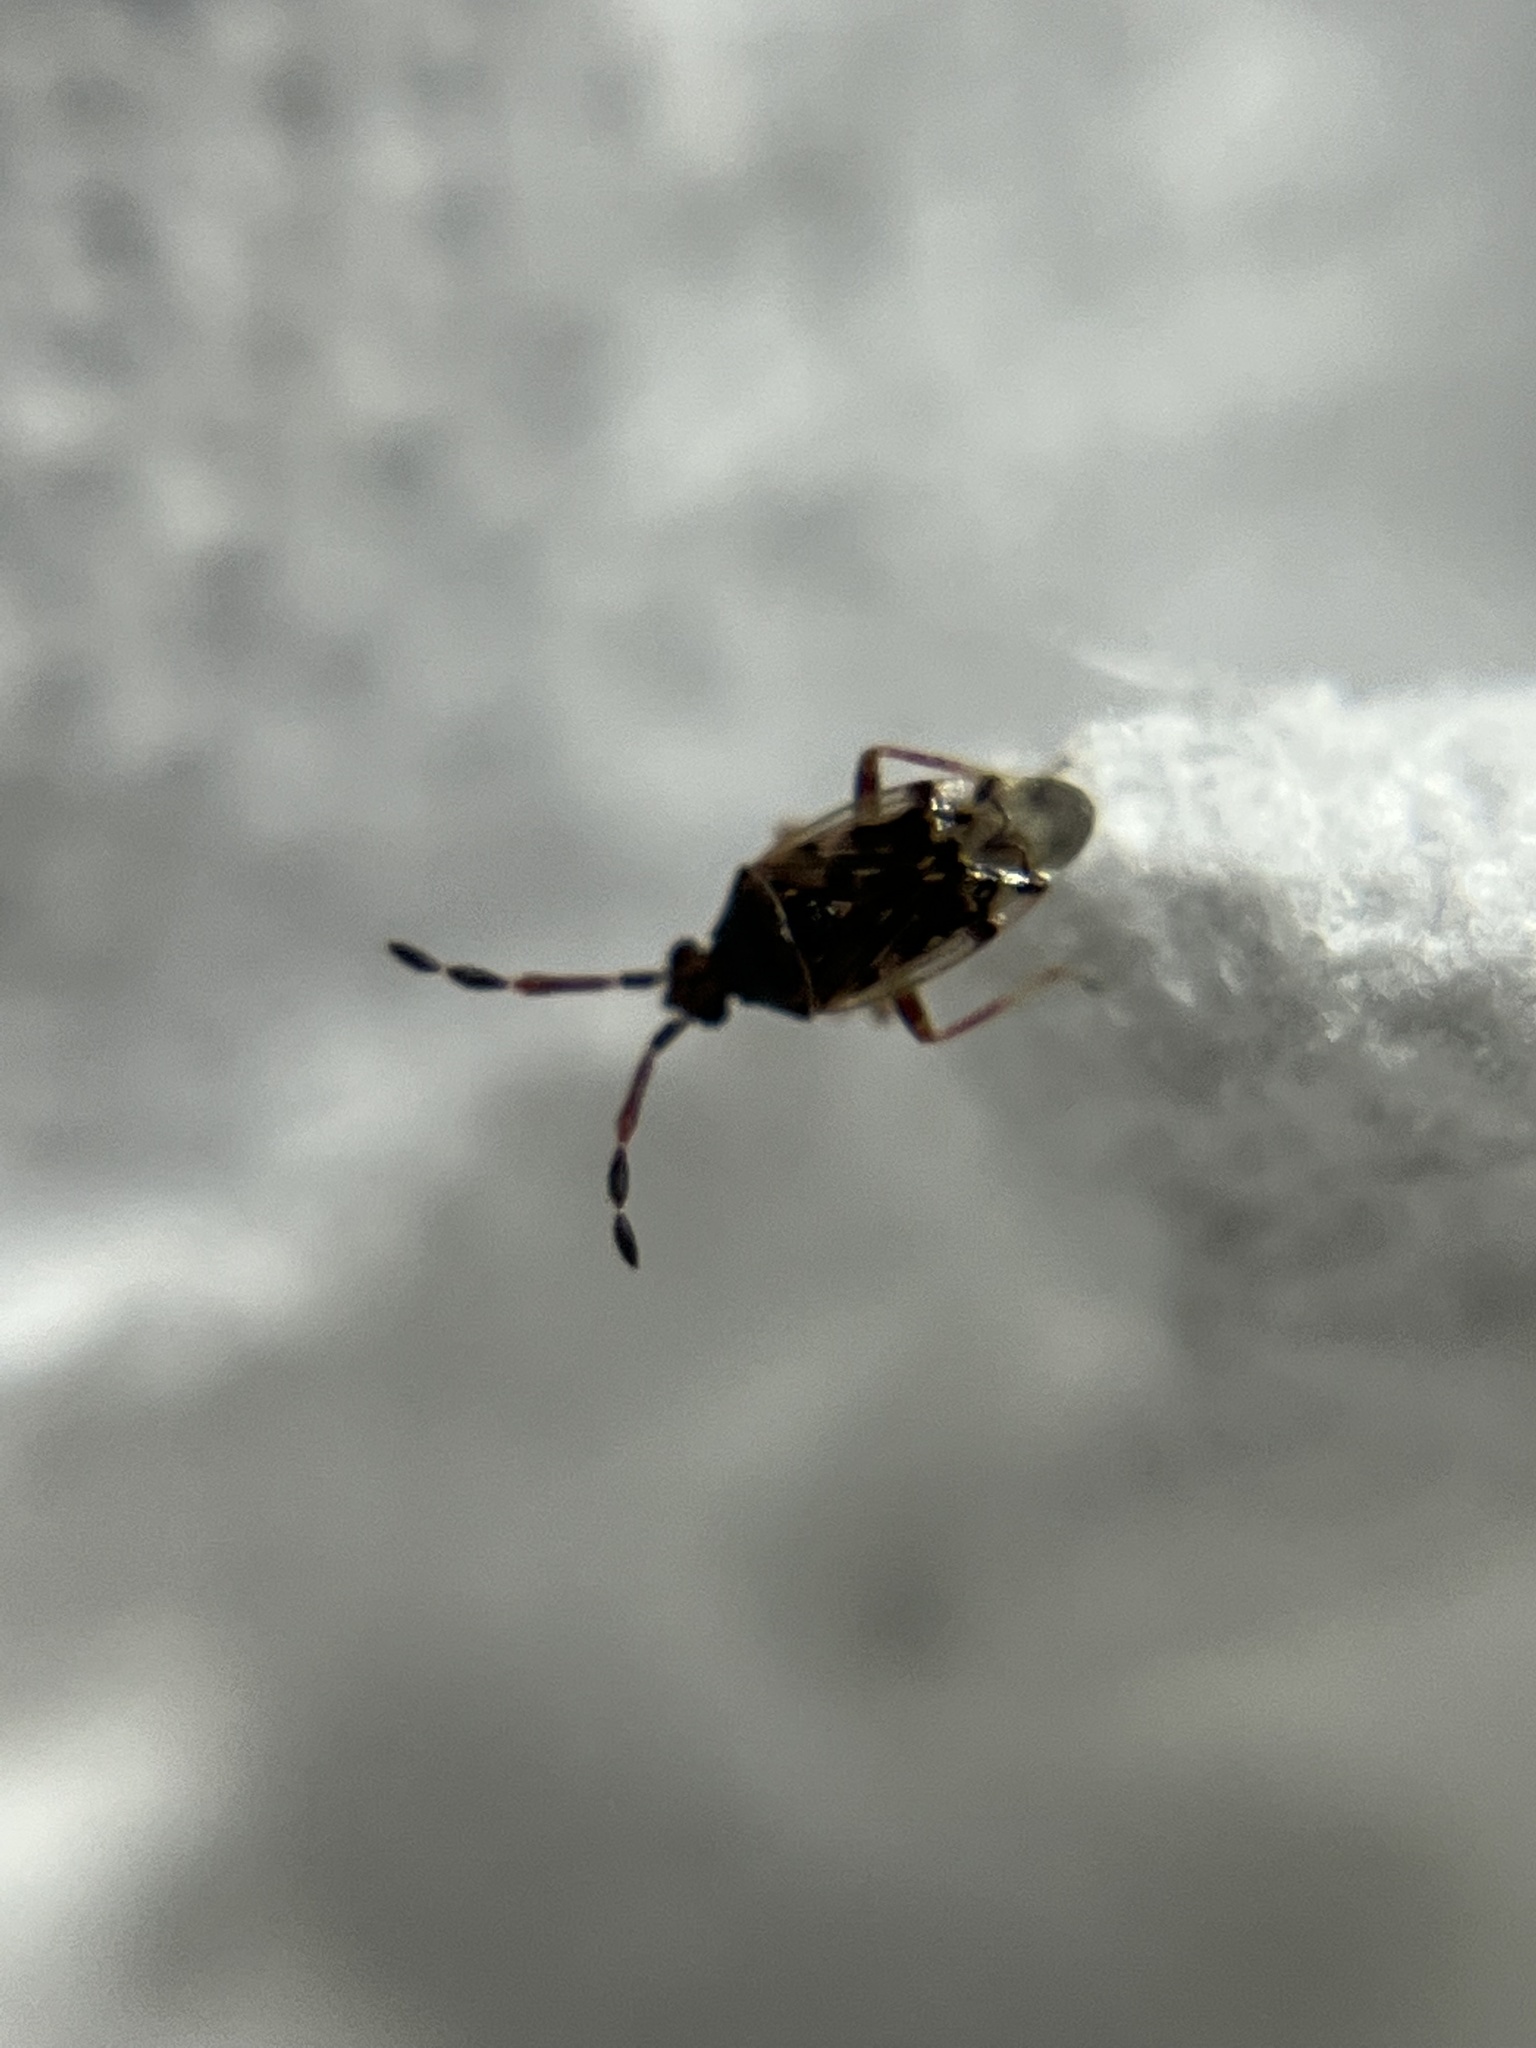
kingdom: Animalia
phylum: Arthropoda
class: Insecta
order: Hemiptera
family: Miridae
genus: Diplozona
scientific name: Diplozona collaris
